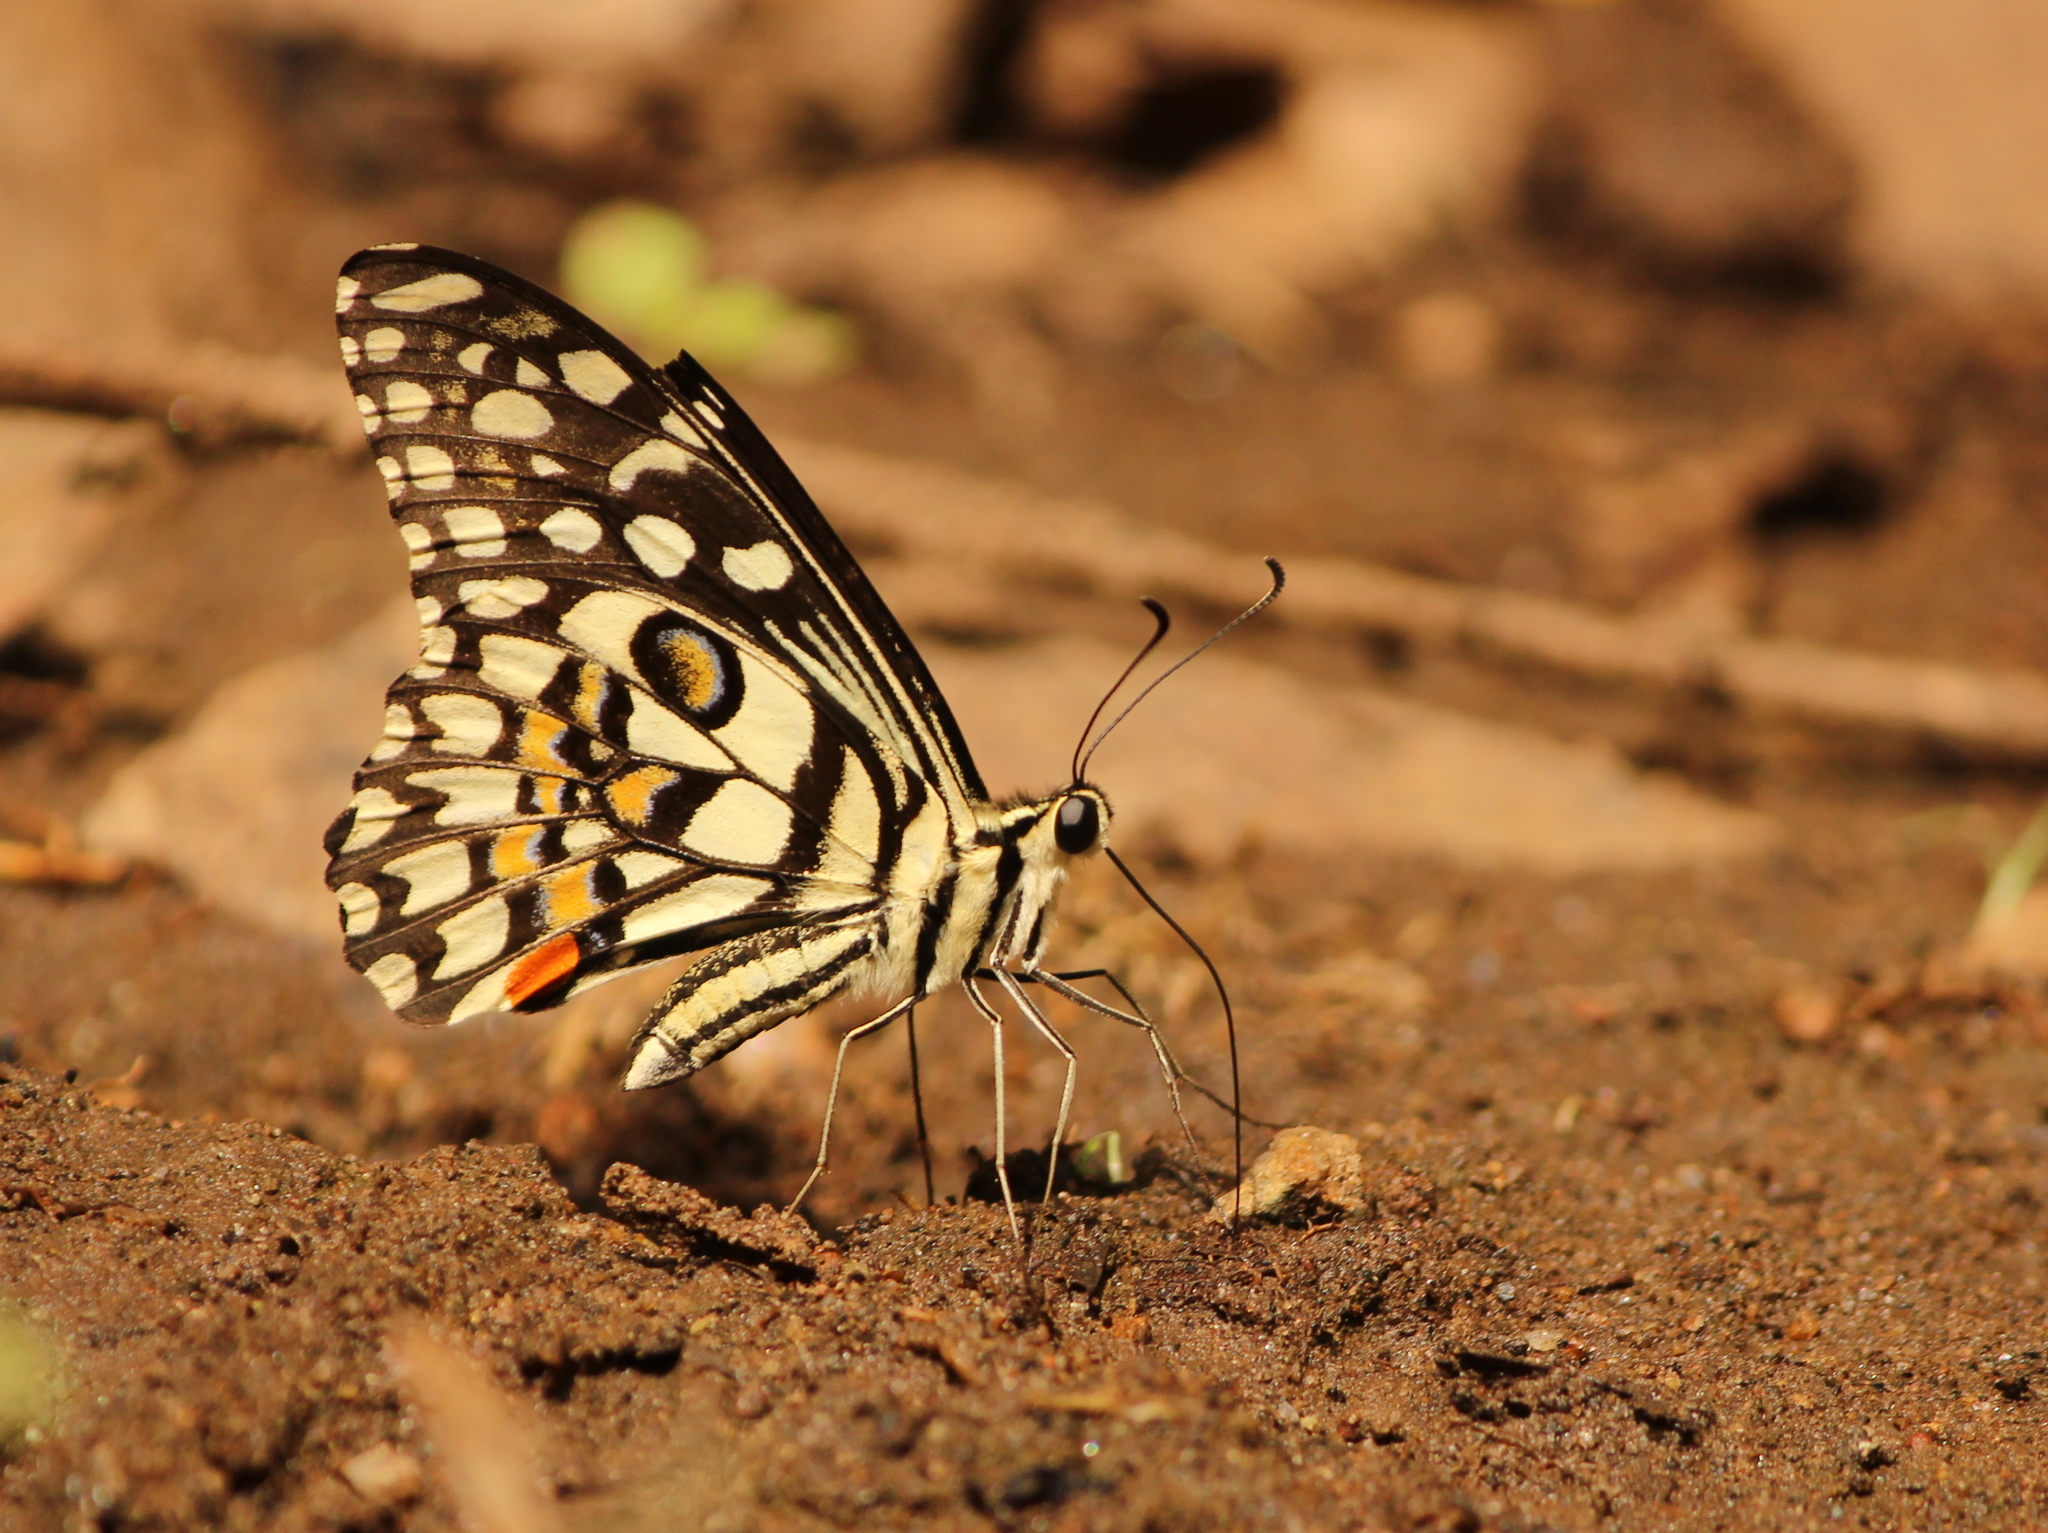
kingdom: Animalia
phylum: Arthropoda
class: Insecta
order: Lepidoptera
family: Papilionidae
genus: Papilio
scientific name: Papilio demoleus
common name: Lime butterfly
